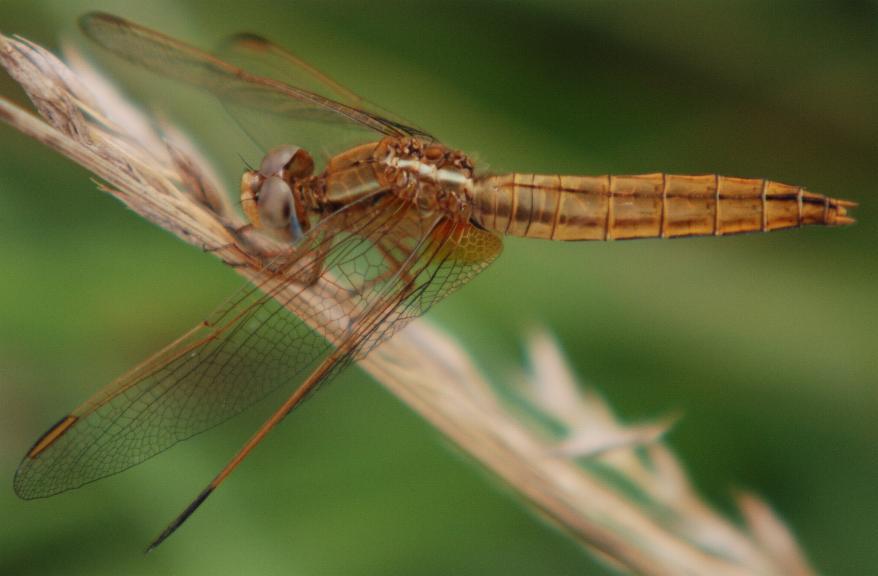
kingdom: Animalia
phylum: Arthropoda
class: Insecta
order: Odonata
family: Libellulidae
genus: Crocothemis
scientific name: Crocothemis erythraea
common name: Scarlet dragonfly
